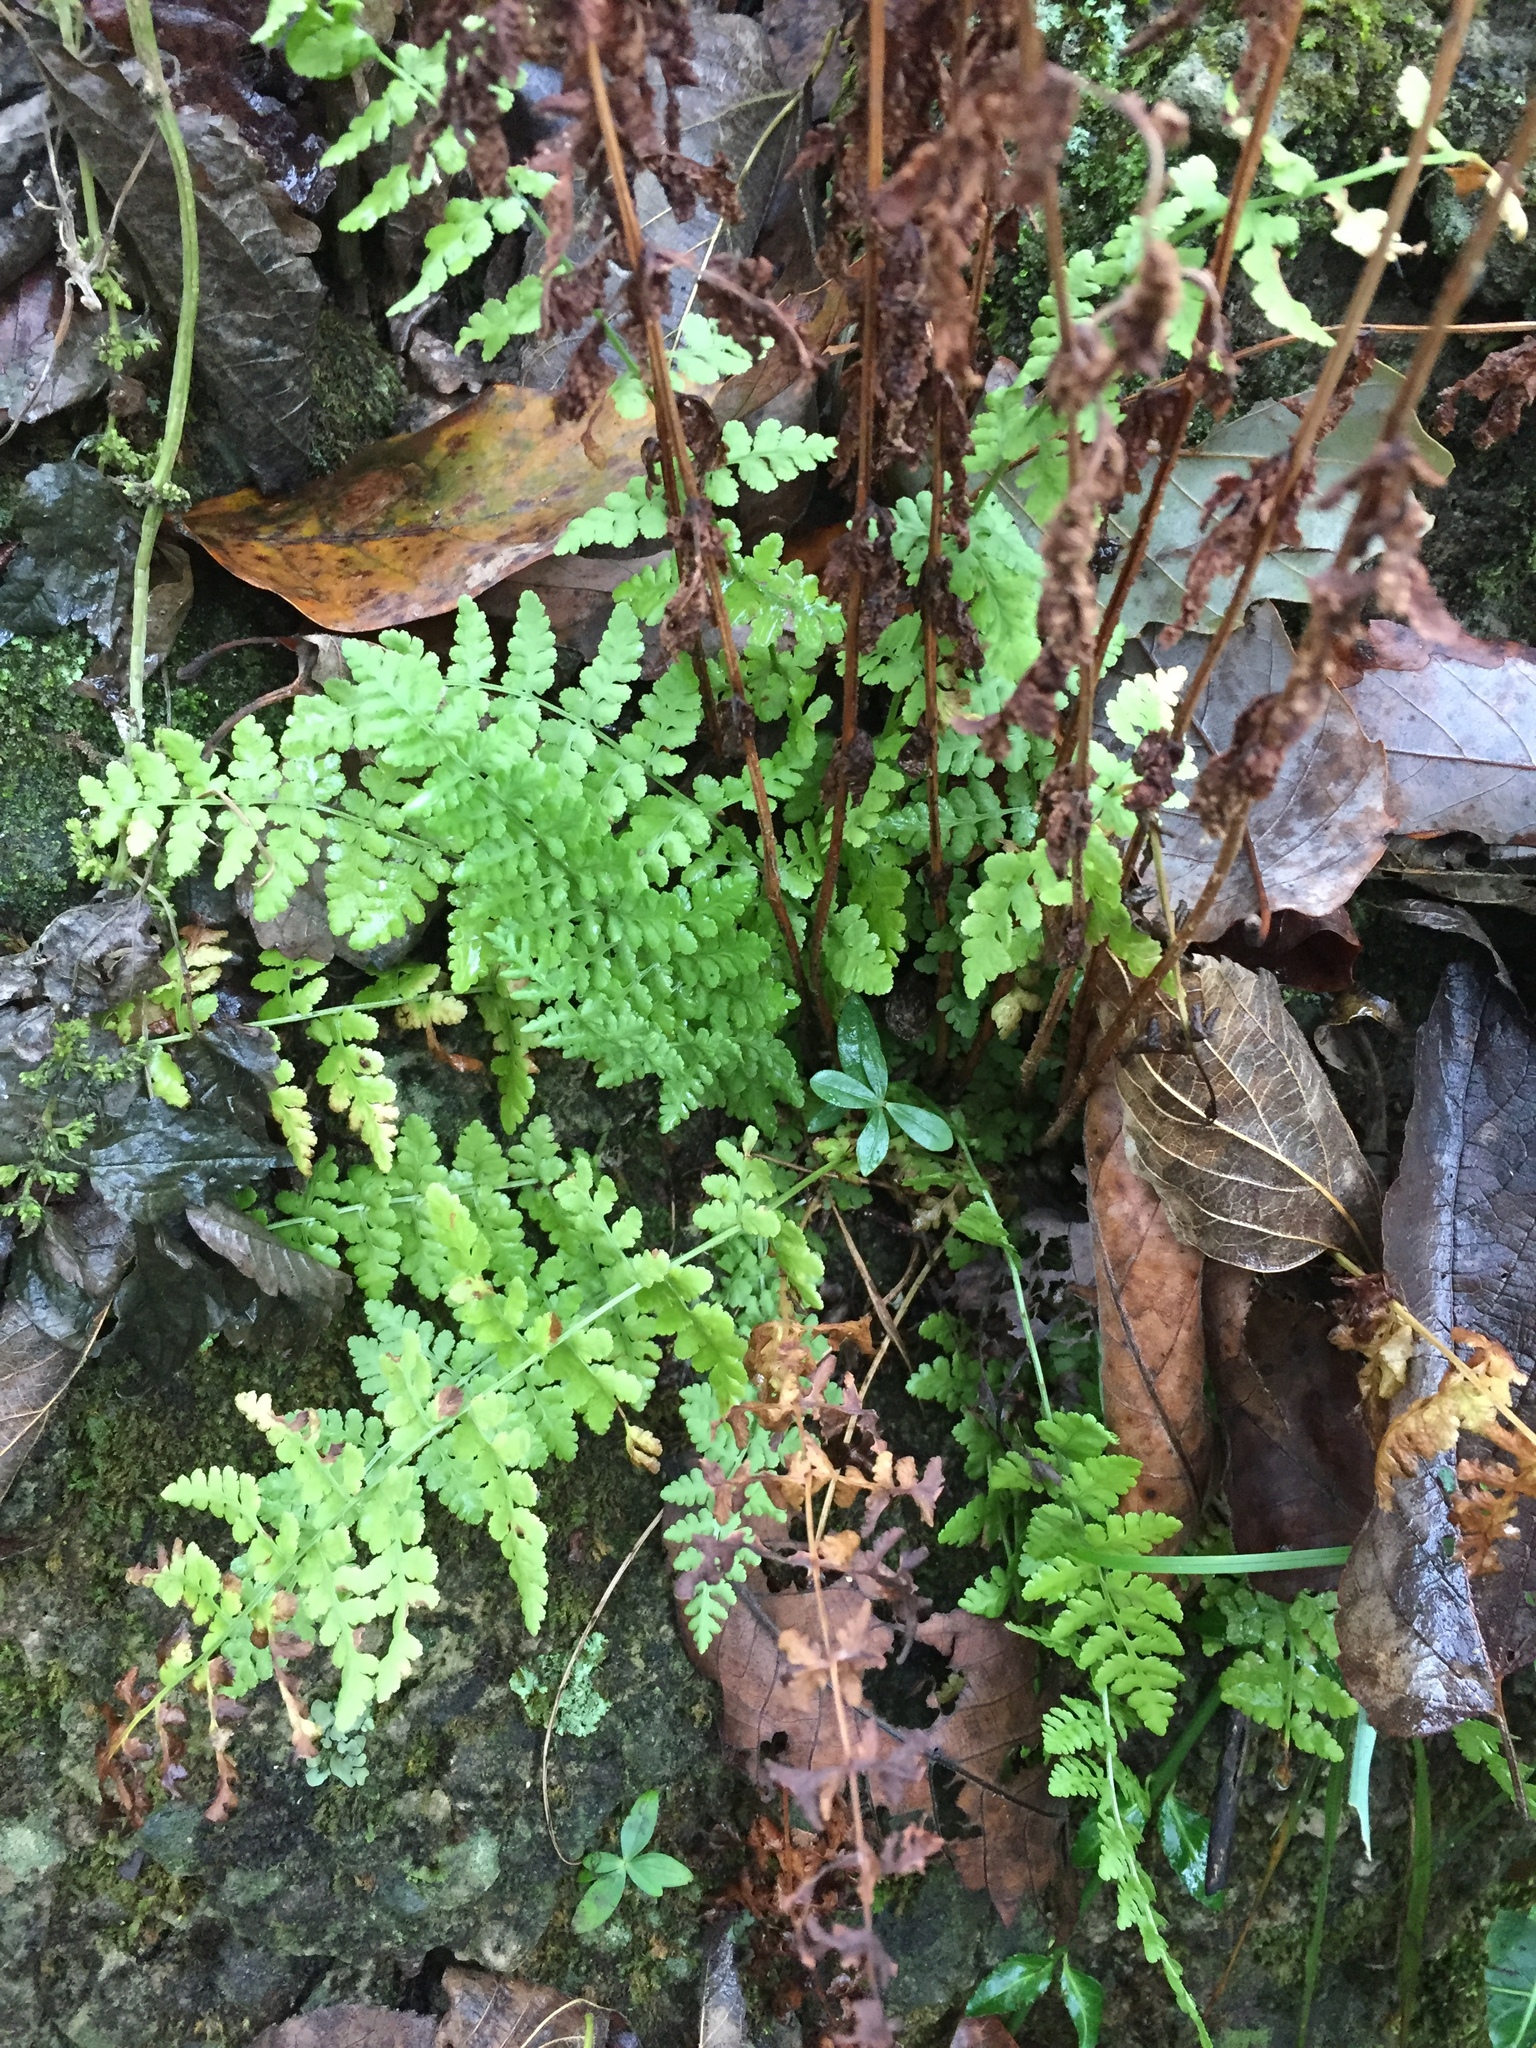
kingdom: Plantae
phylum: Tracheophyta
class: Polypodiopsida
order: Polypodiales
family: Woodsiaceae
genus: Physematium
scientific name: Physematium obtusum
